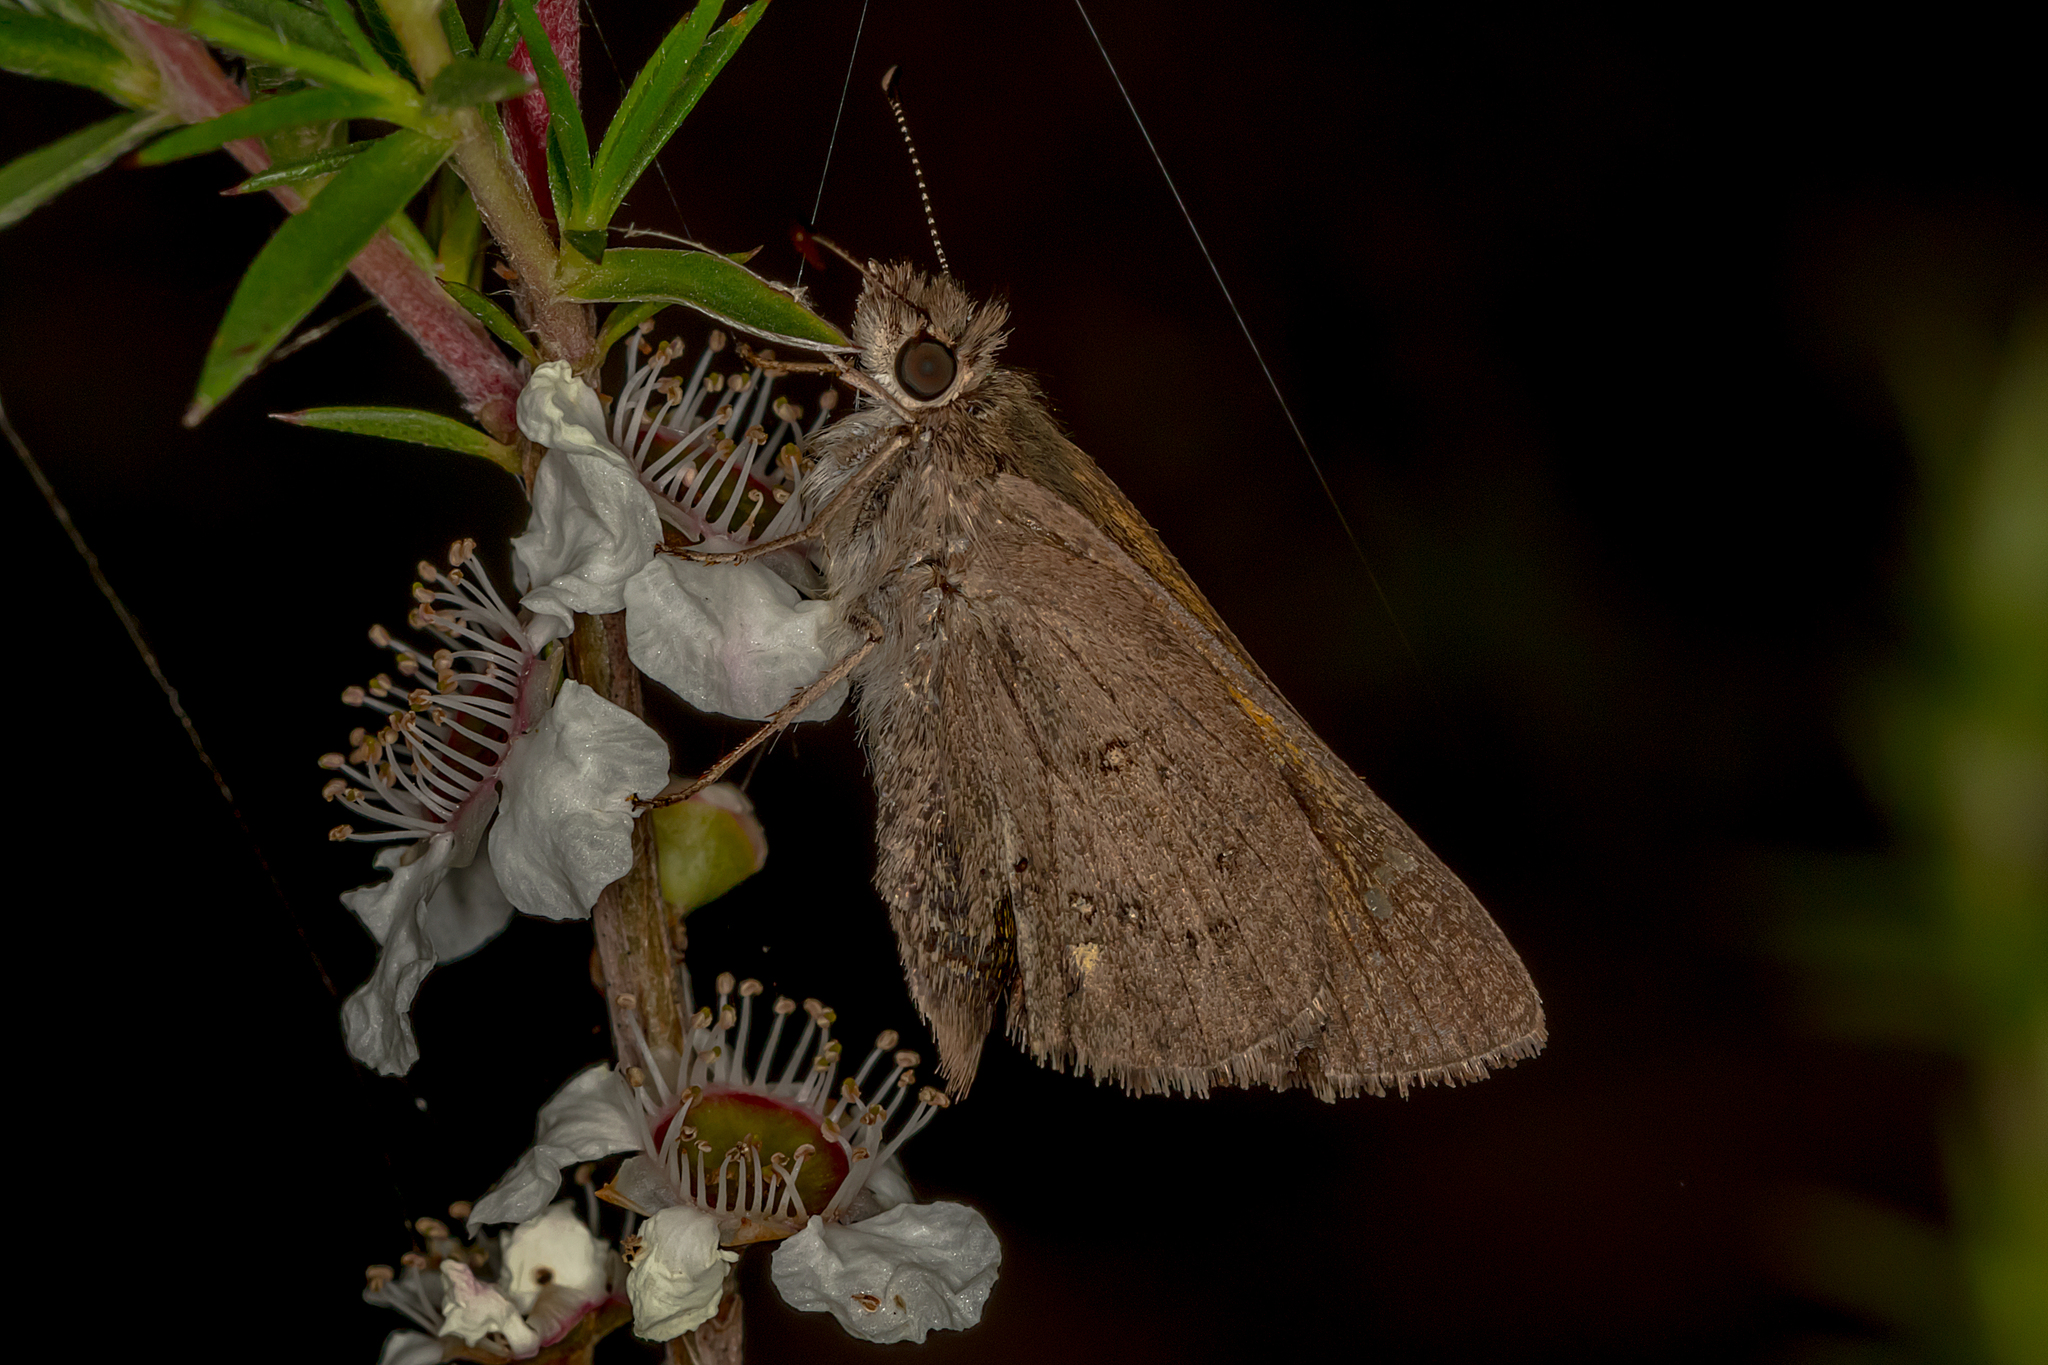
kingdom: Animalia
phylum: Arthropoda
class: Insecta
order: Lepidoptera
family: Hesperiidae
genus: Hesperilla
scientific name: Hesperilla donnysa
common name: Varied sedge-skipper
